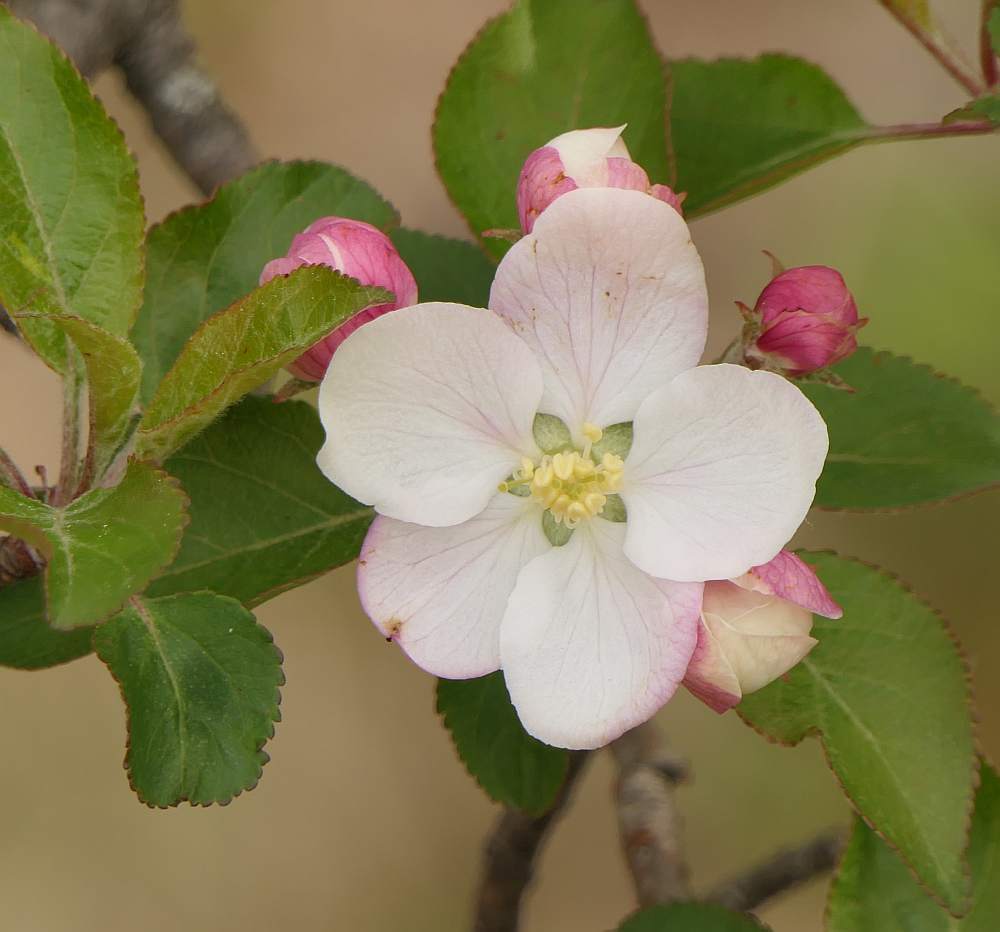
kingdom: Plantae
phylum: Tracheophyta
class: Magnoliopsida
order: Rosales
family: Rosaceae
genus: Malus
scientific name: Malus domestica
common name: Apple
